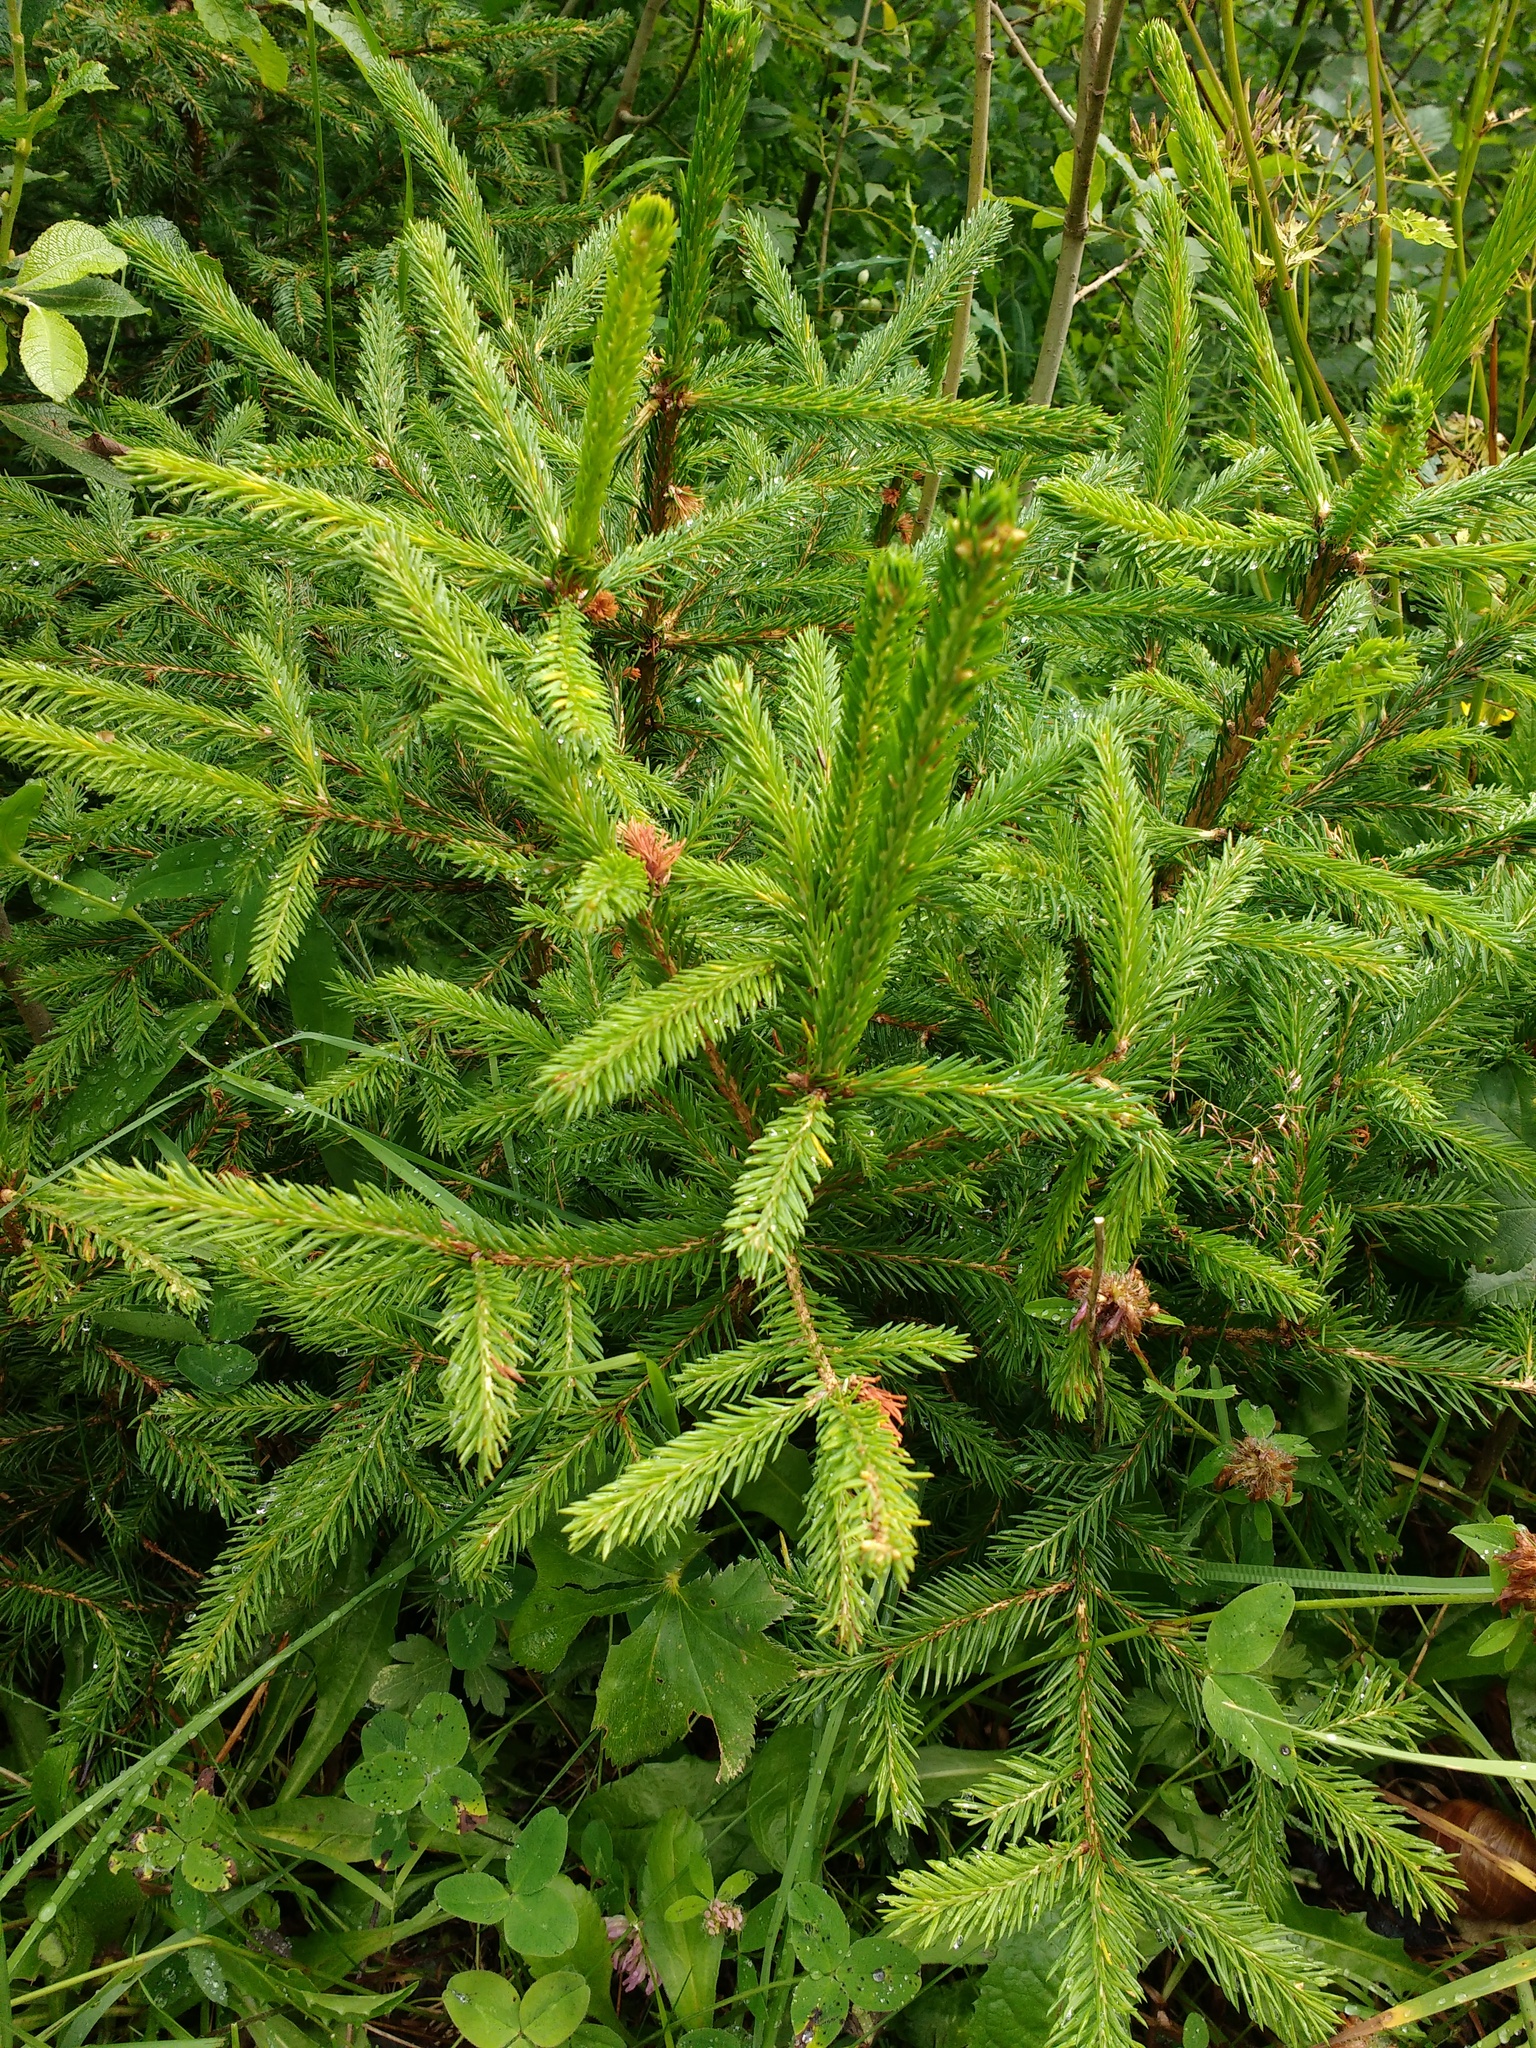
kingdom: Plantae
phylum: Tracheophyta
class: Pinopsida
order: Pinales
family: Pinaceae
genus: Picea
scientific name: Picea abies
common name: Norway spruce
